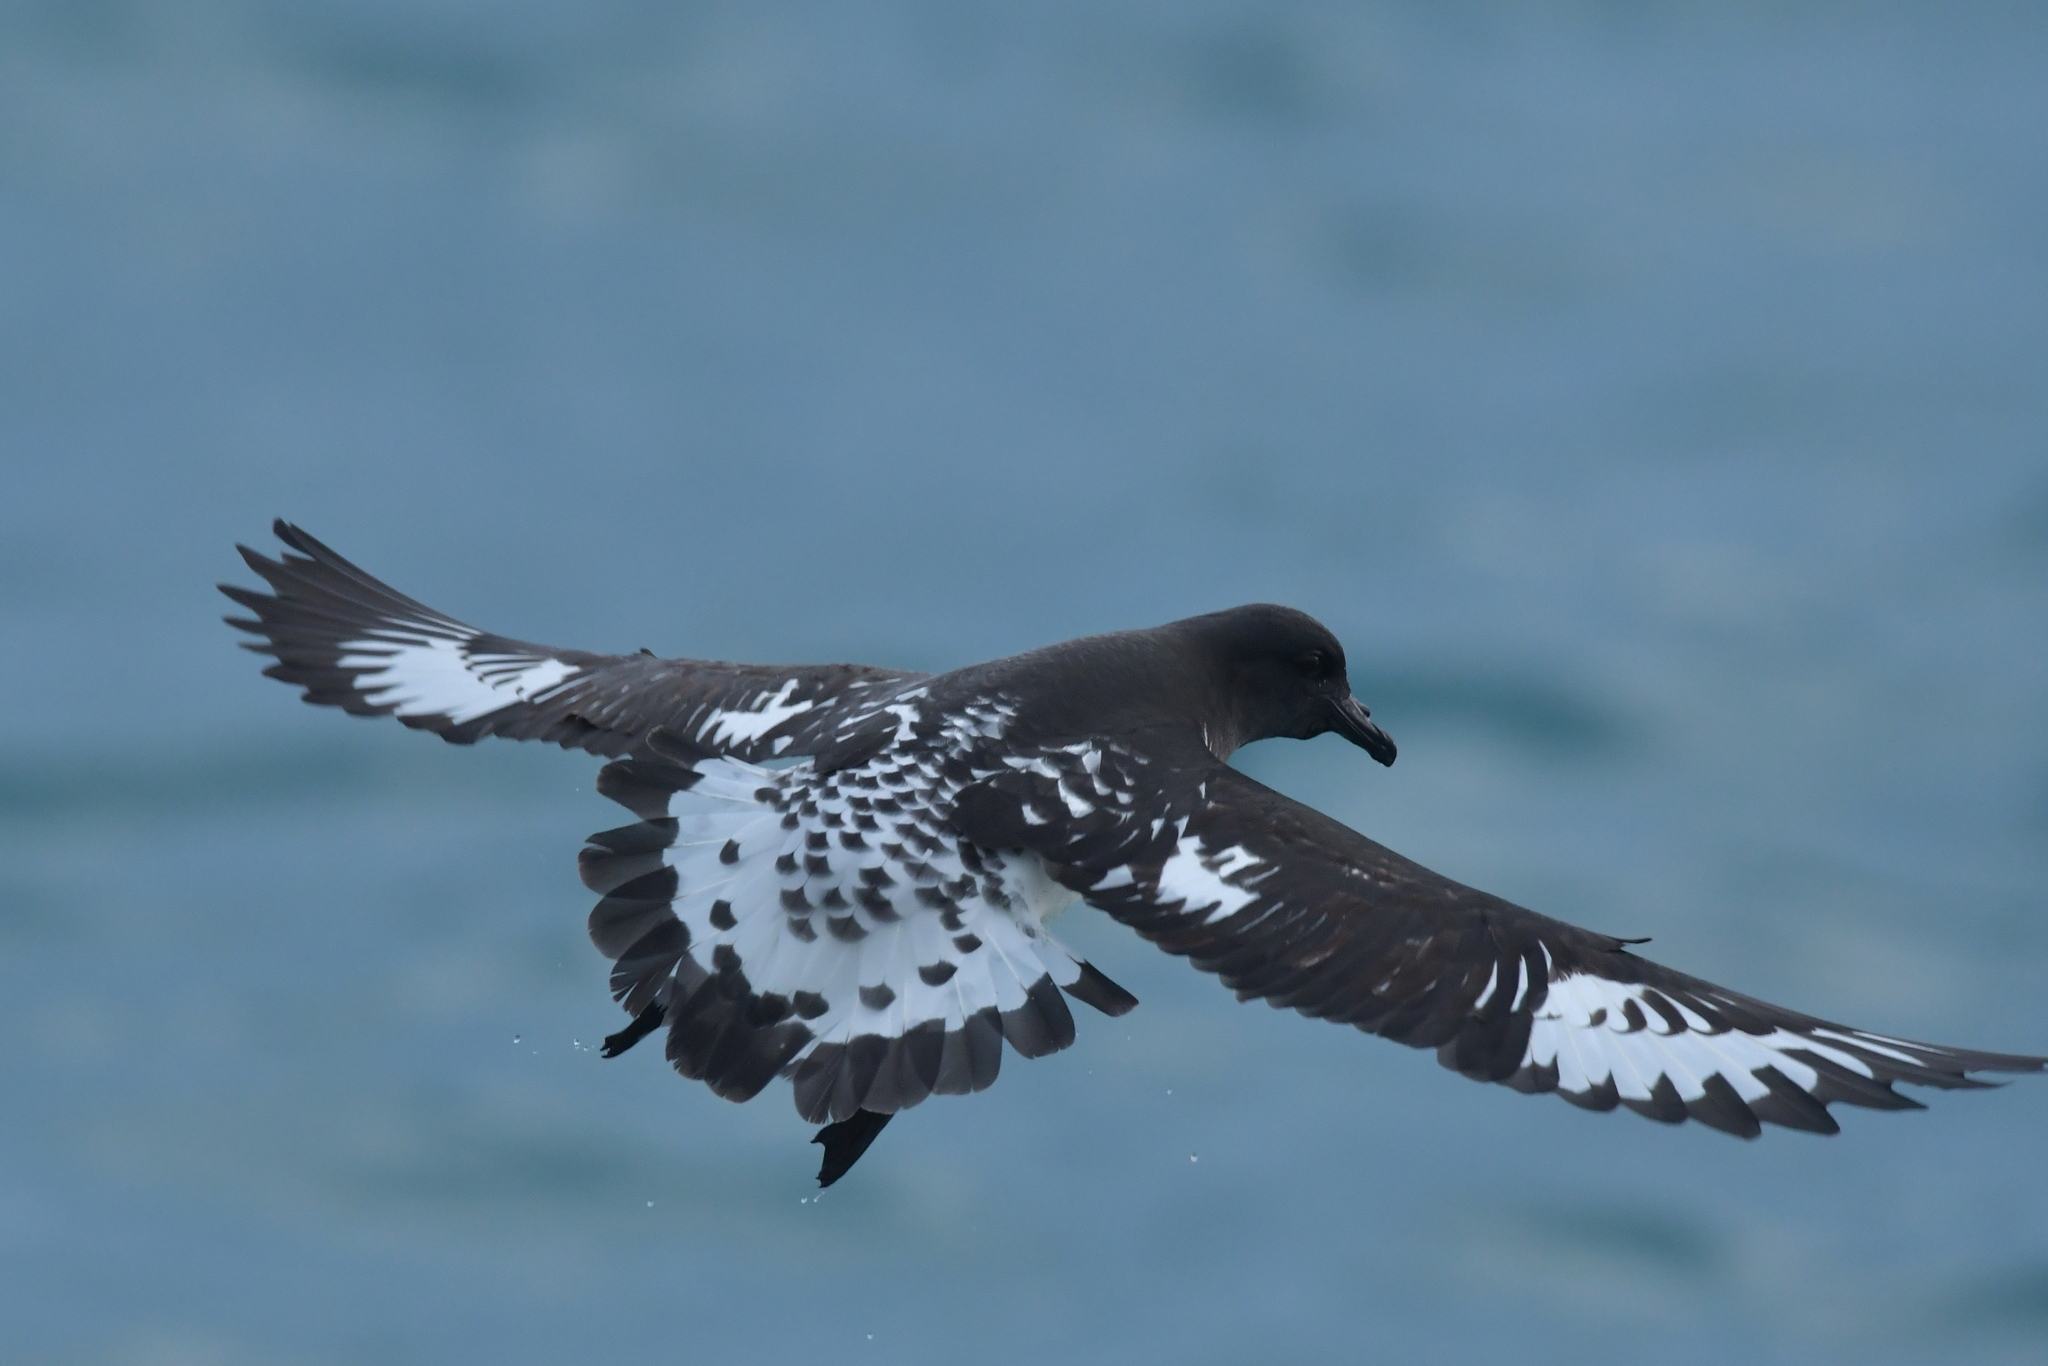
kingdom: Animalia
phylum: Chordata
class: Aves
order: Procellariiformes
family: Procellariidae
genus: Daption
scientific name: Daption capense
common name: Cape petrel
